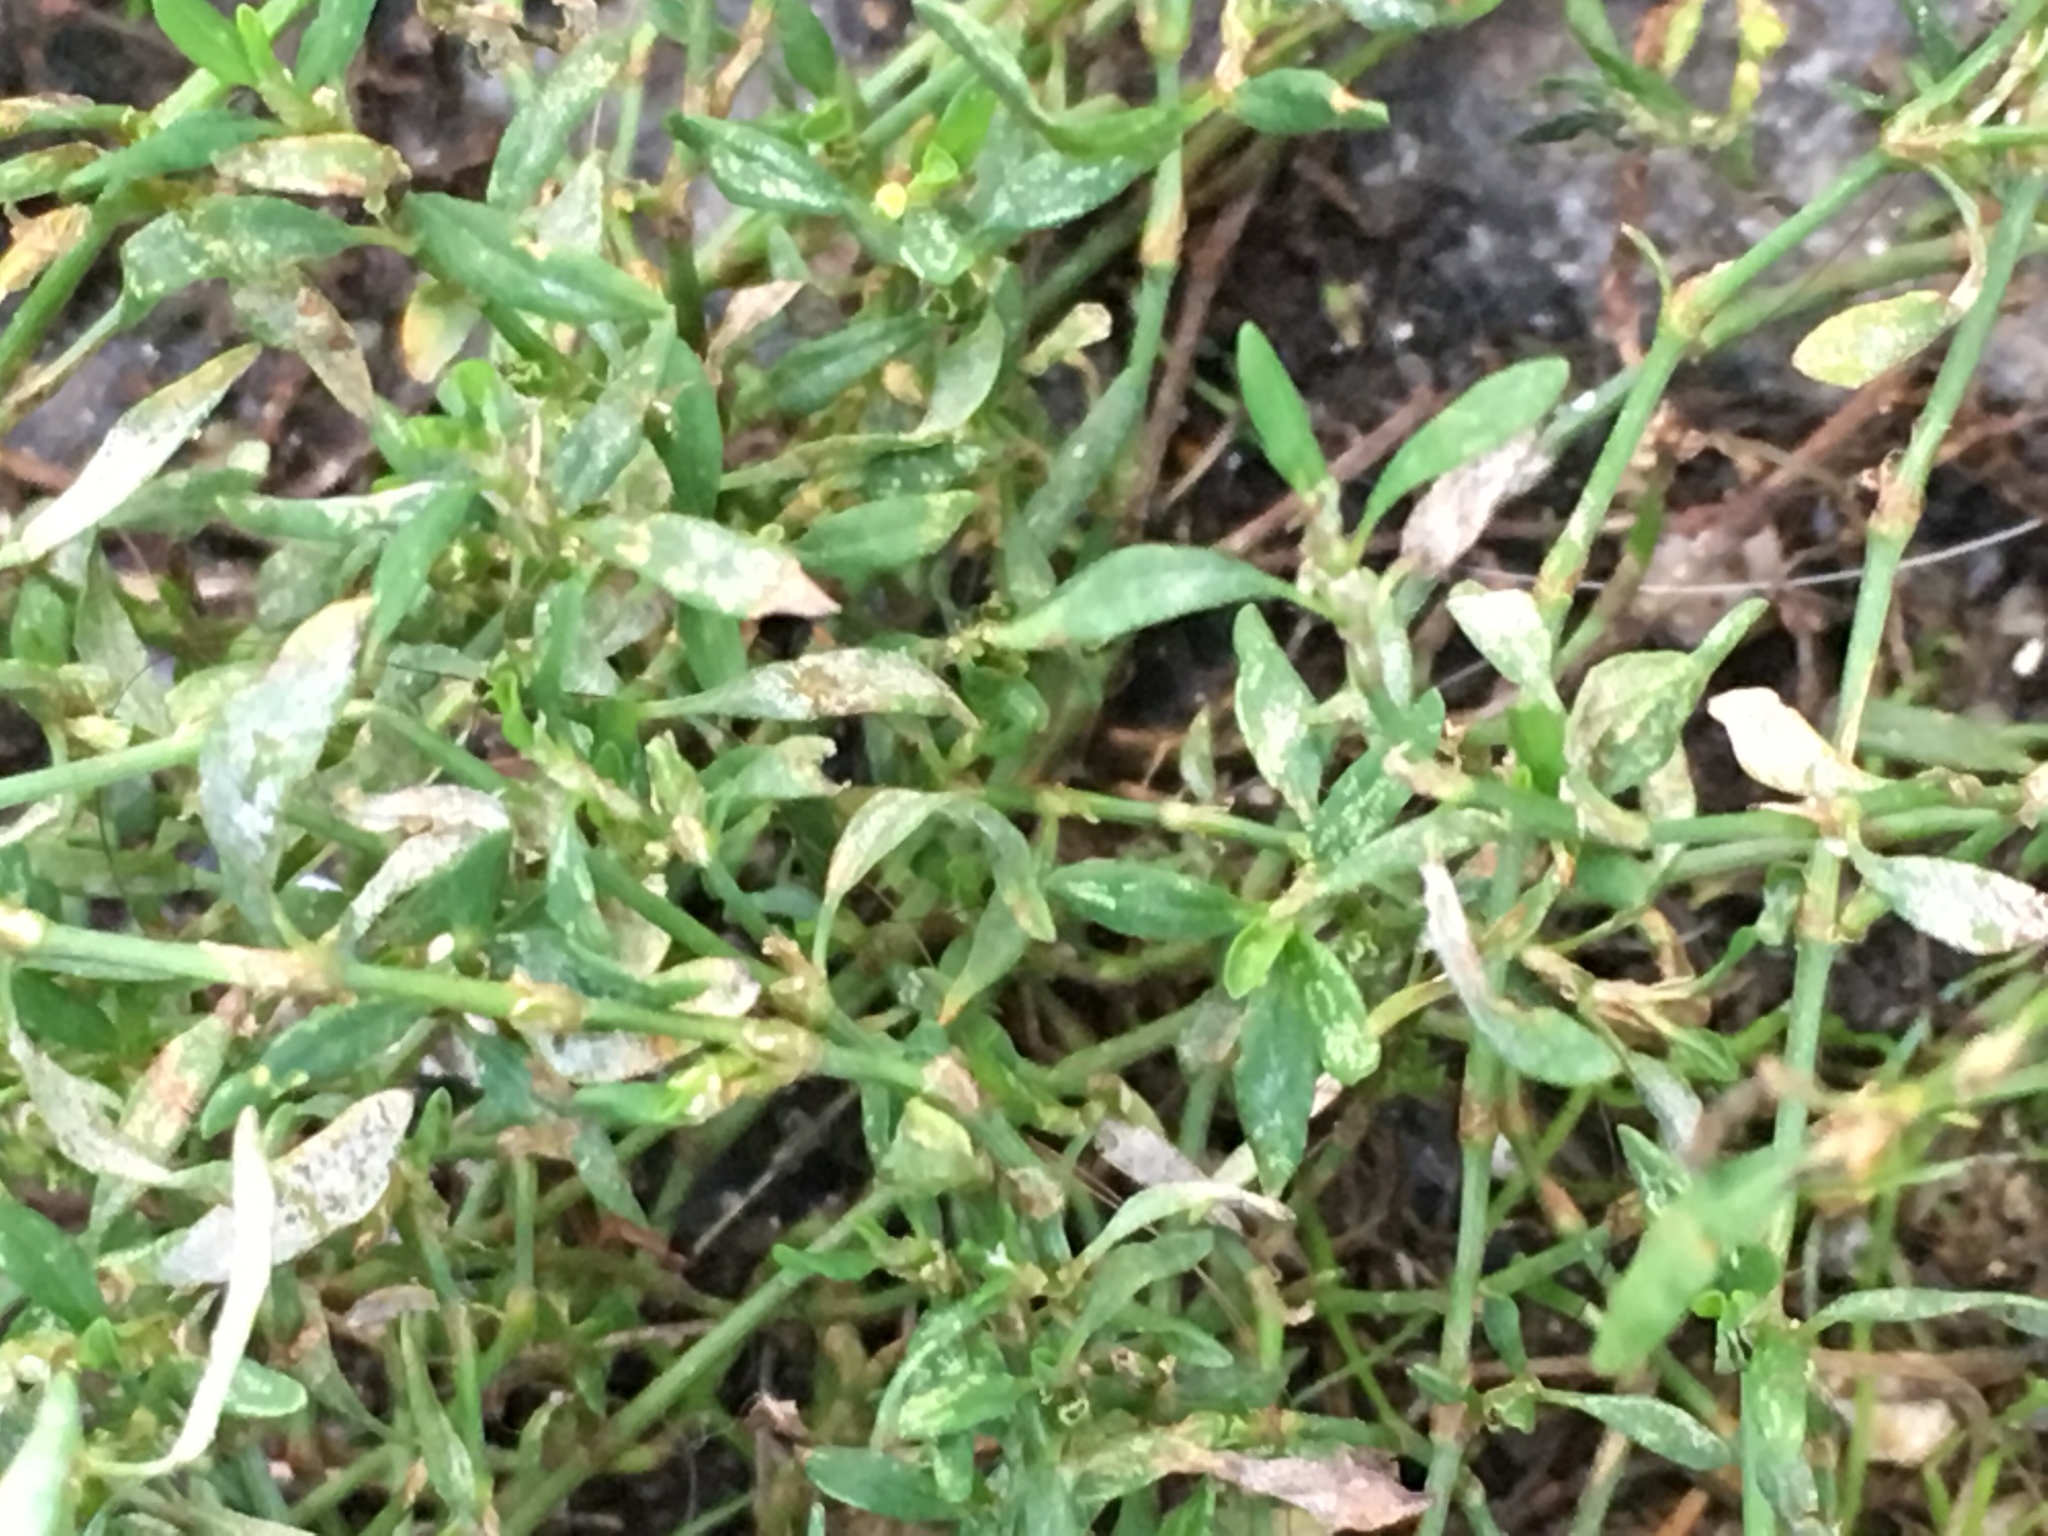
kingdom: Plantae
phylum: Tracheophyta
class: Magnoliopsida
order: Caryophyllales
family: Polygonaceae
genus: Polygonum
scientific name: Polygonum aviculare
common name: Prostrate knotweed
